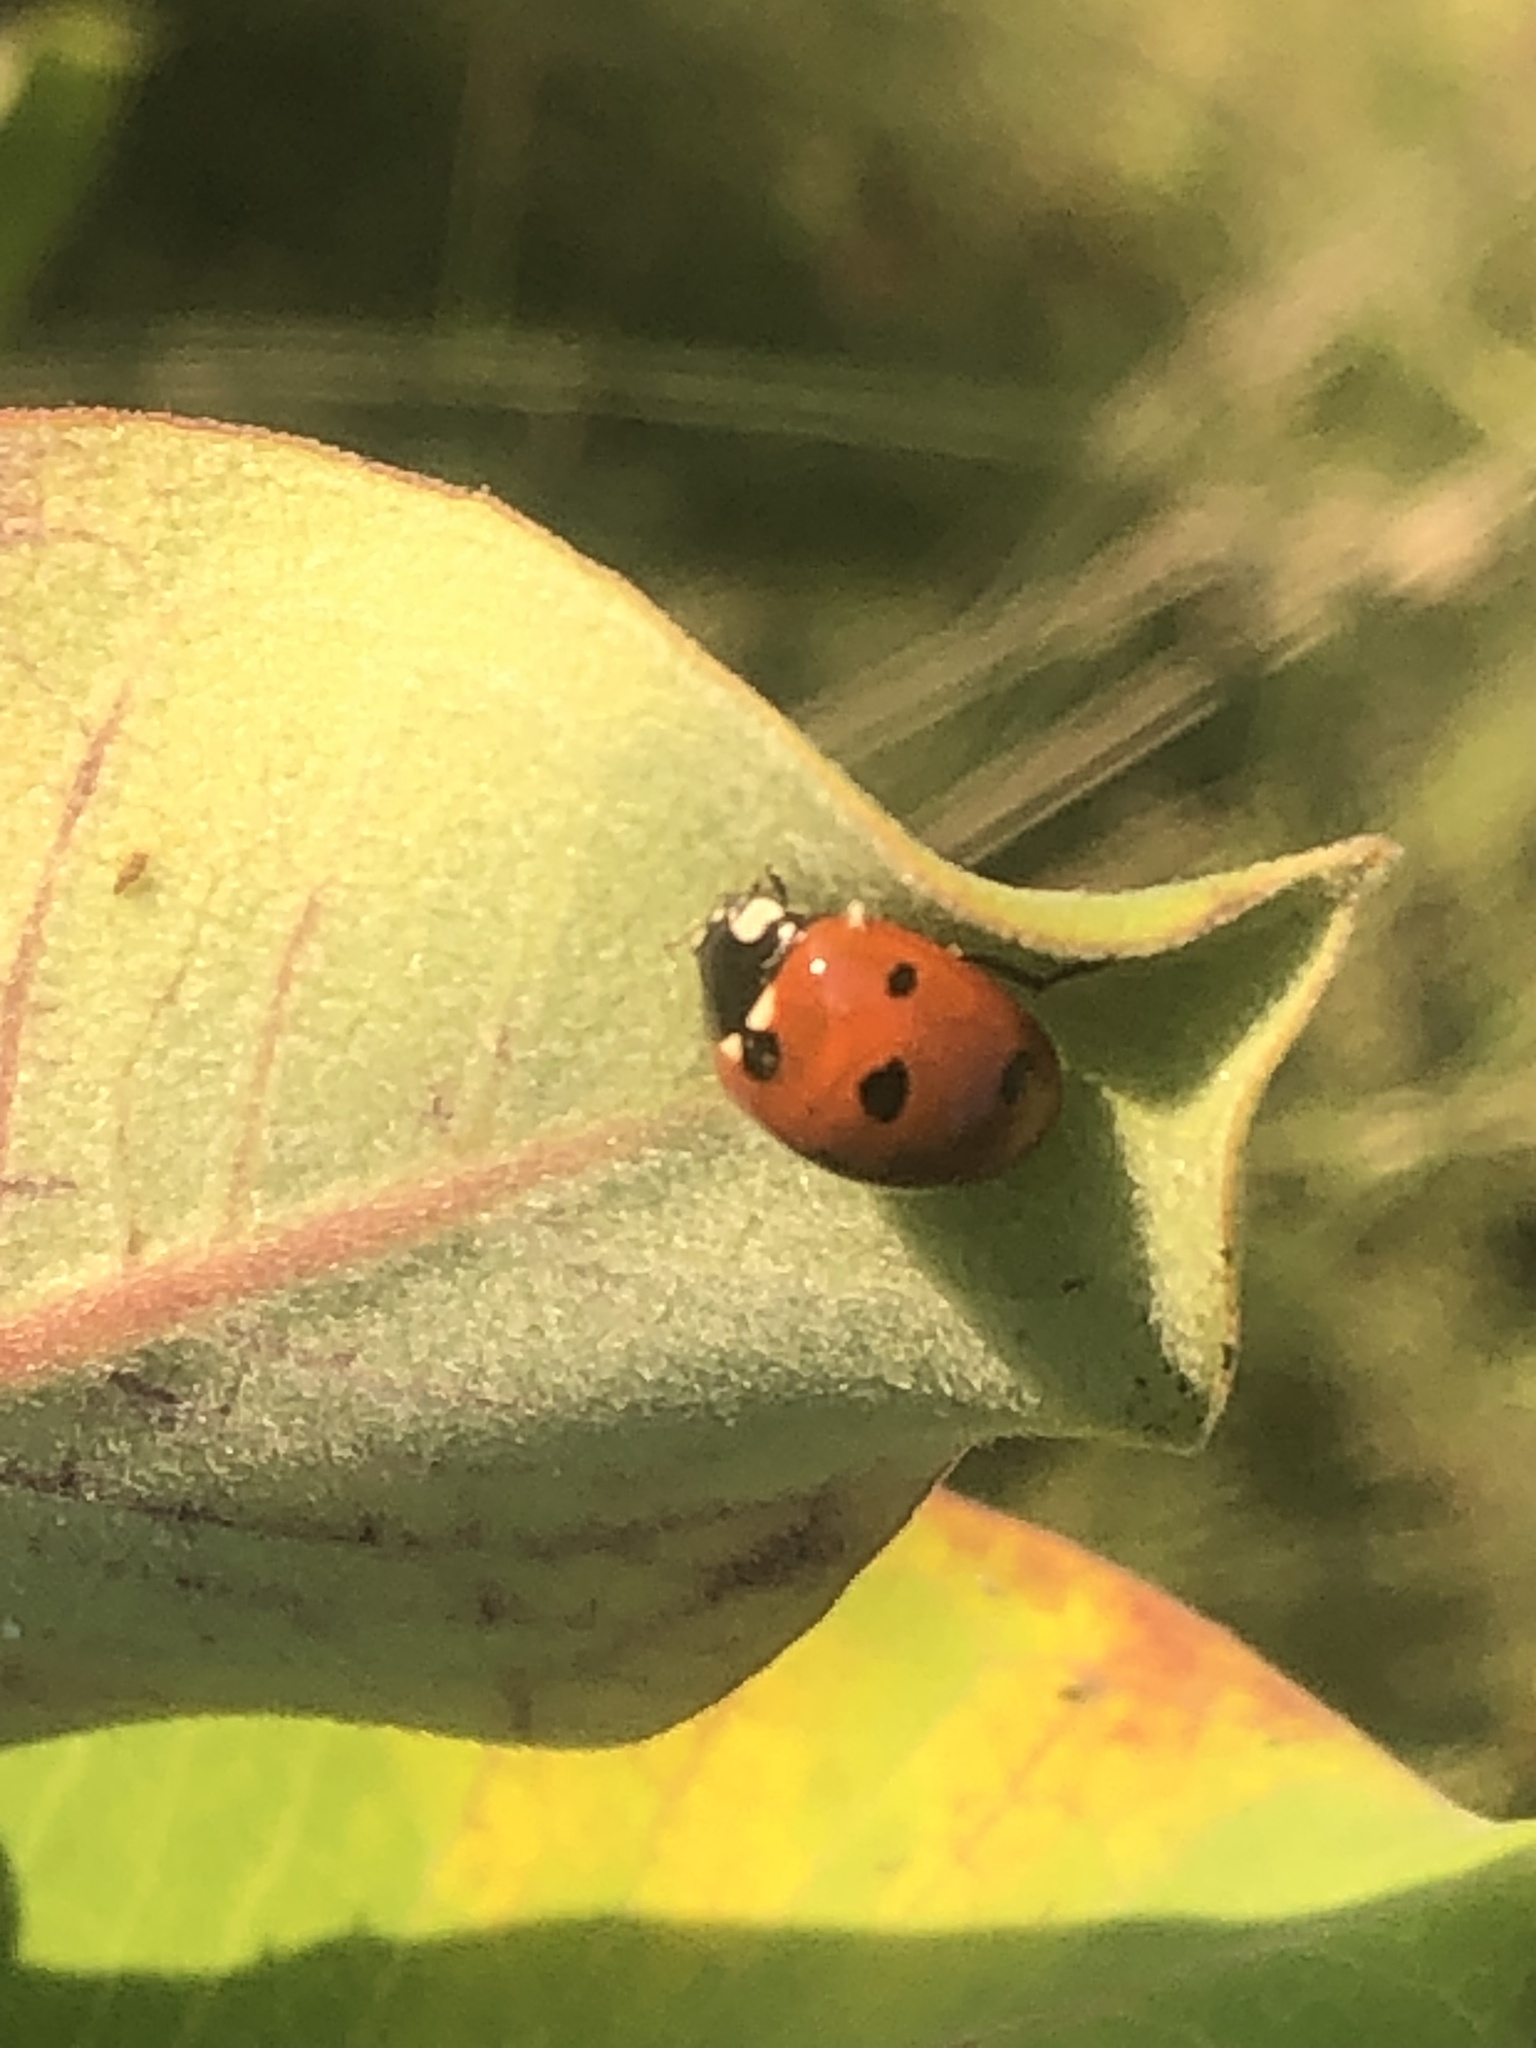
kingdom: Animalia
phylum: Arthropoda
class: Insecta
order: Coleoptera
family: Coccinellidae
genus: Coccinella
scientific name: Coccinella septempunctata
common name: Sevenspotted lady beetle
